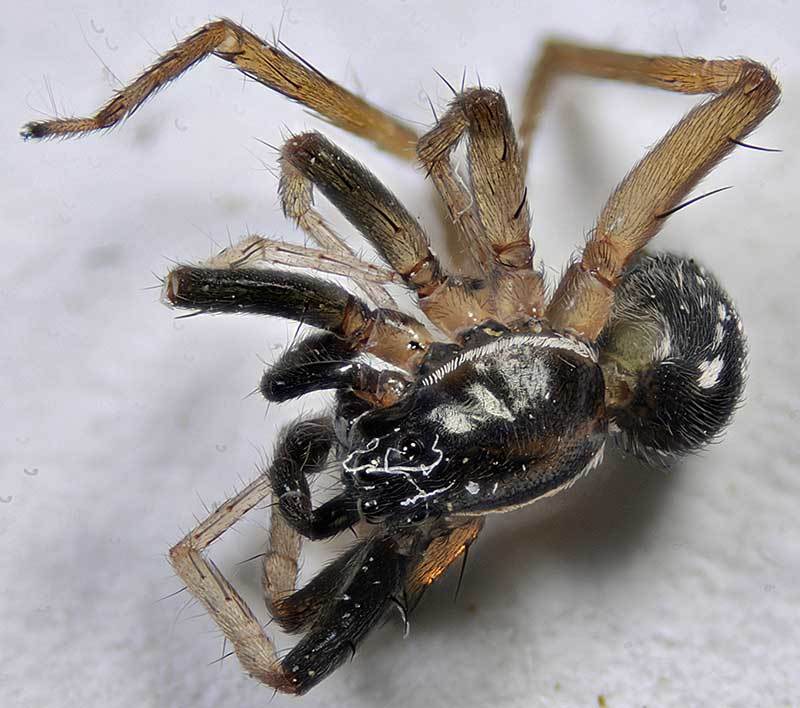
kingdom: Animalia
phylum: Arthropoda
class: Arachnida
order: Araneae
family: Lycosidae
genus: Pirata
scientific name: Pirata montanus
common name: Dark-legged pirate wolf spider
